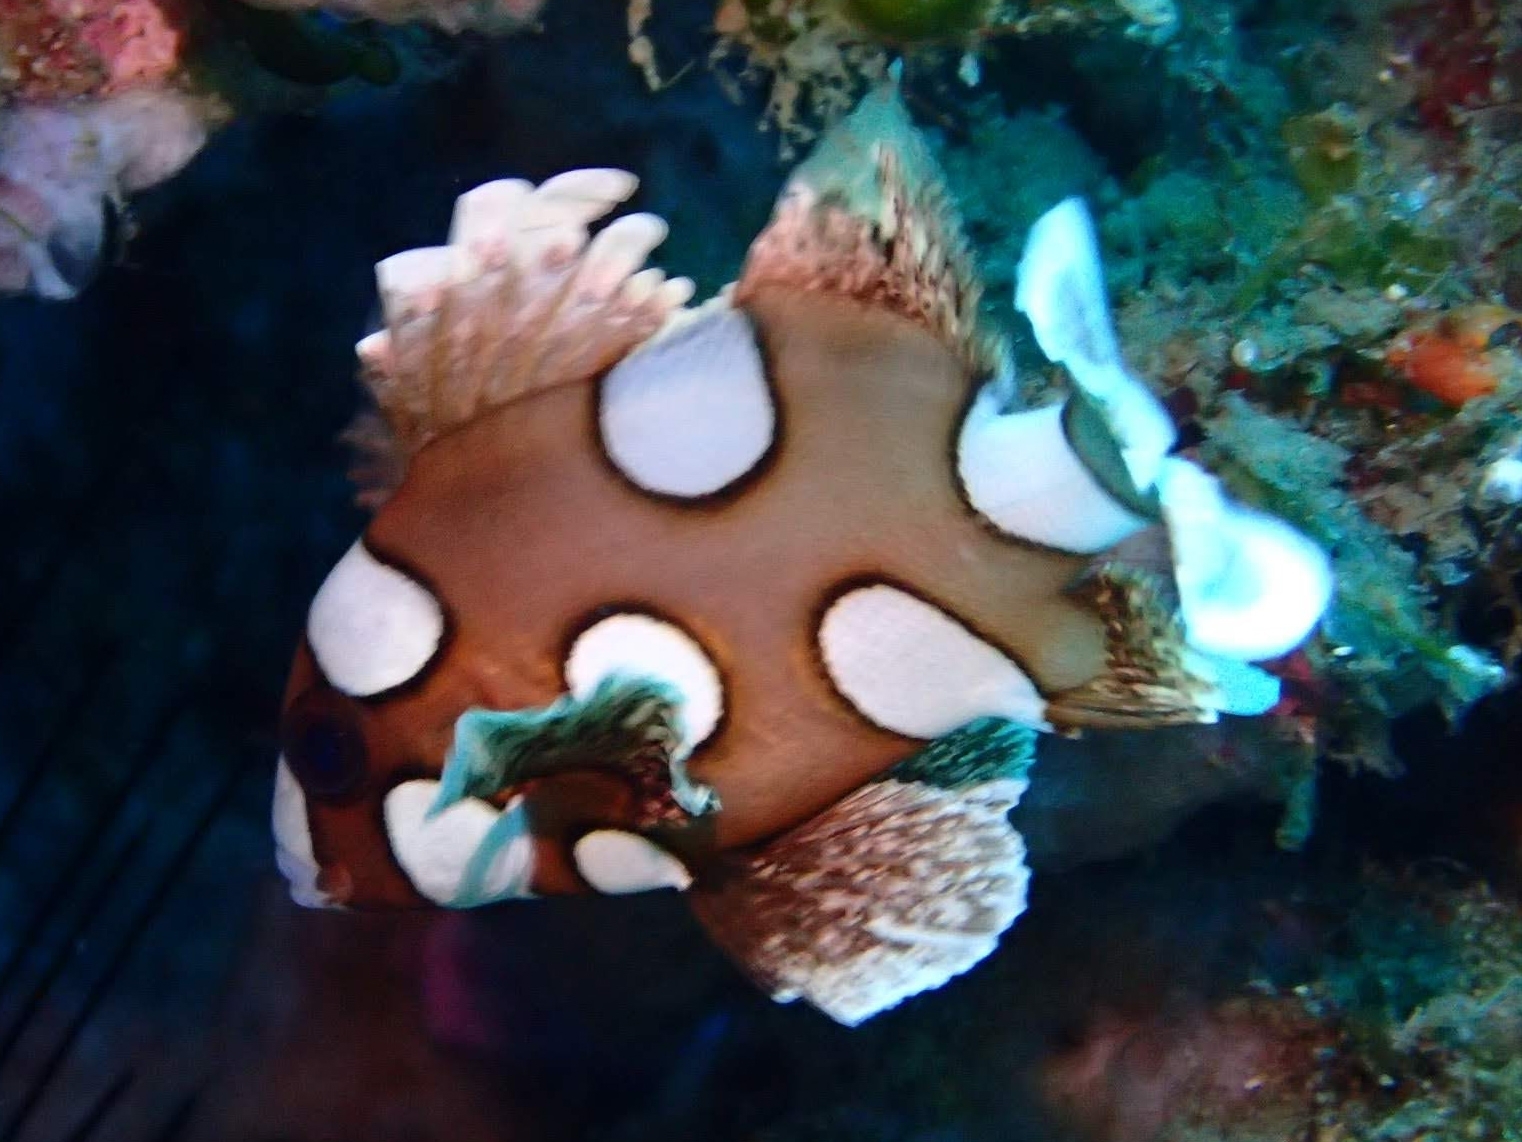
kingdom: Animalia
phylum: Chordata
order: Perciformes
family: Haemulidae
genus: Plectorhinchus
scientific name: Plectorhinchus chaetodonoides
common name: Harlequin sweetlips
